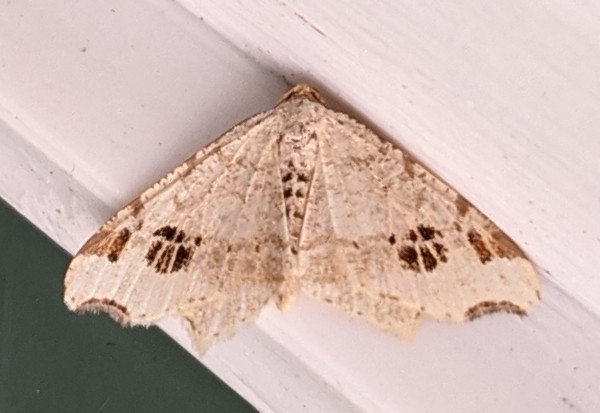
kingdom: Animalia
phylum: Arthropoda
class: Insecta
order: Lepidoptera
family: Geometridae
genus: Macaria
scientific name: Macaria aemulataria
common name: Common angle
